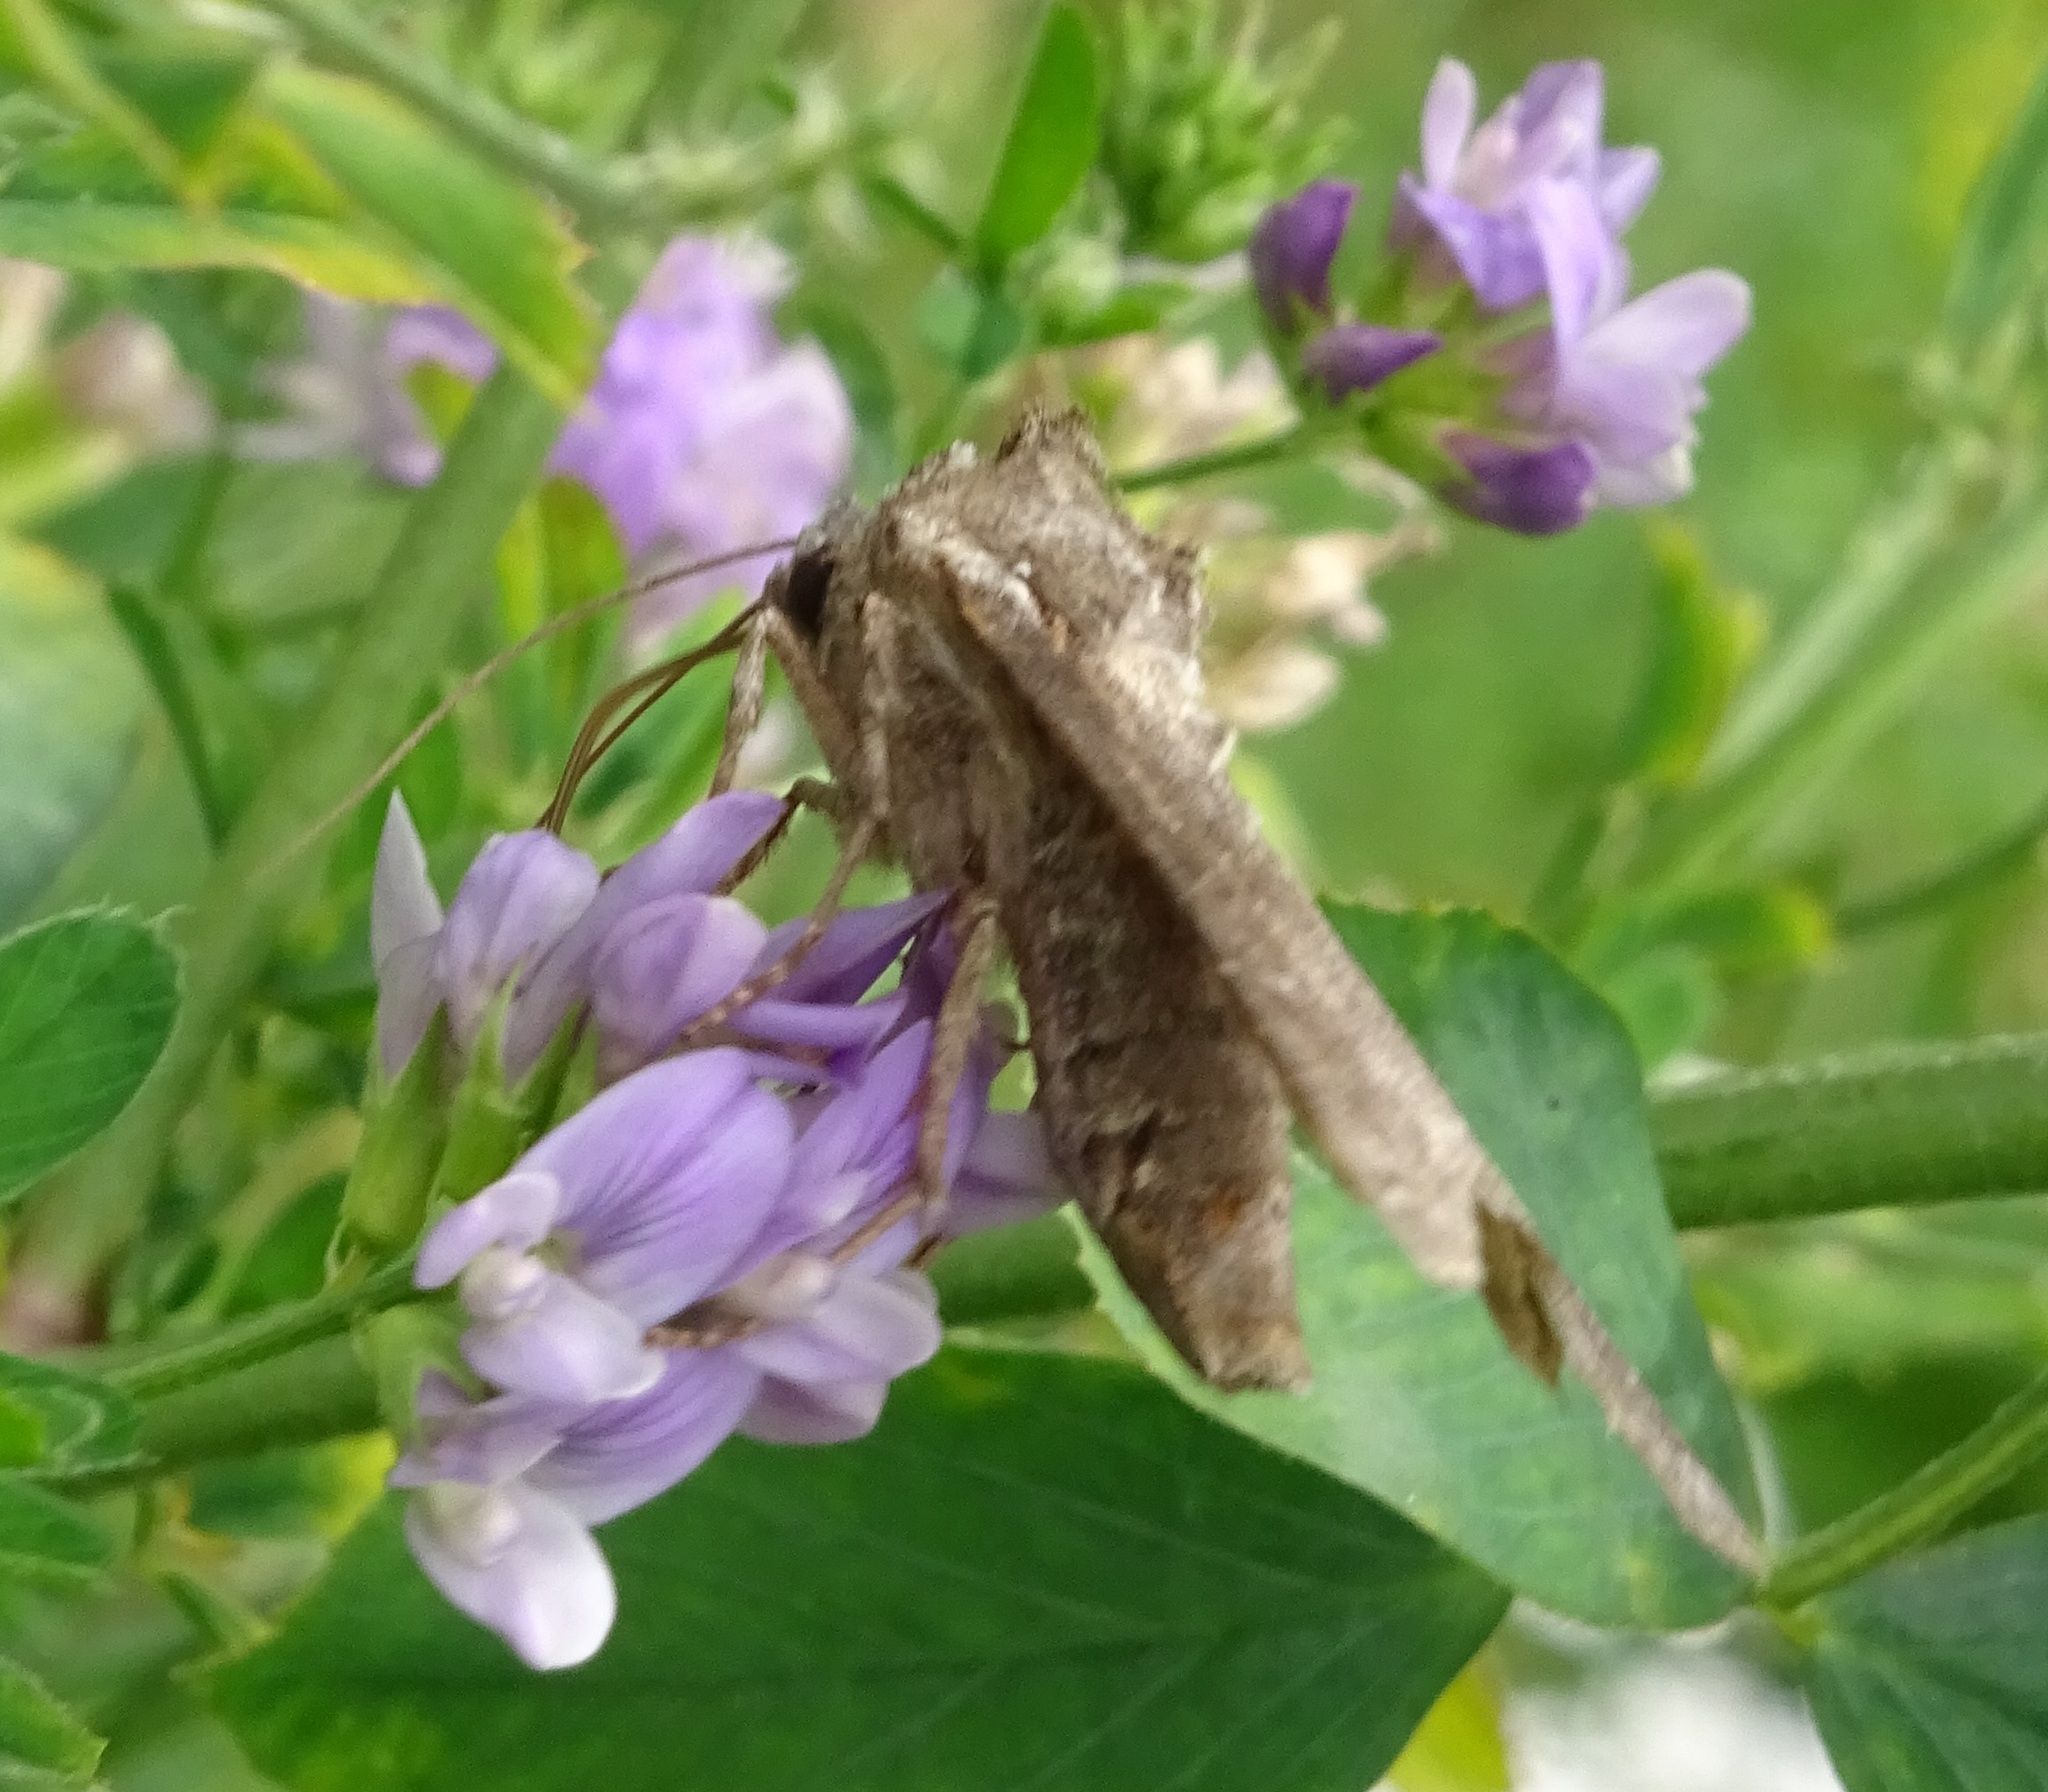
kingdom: Animalia
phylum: Arthropoda
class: Insecta
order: Lepidoptera
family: Noctuidae
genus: Polia
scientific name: Polia bombycina
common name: Pale shining brown
